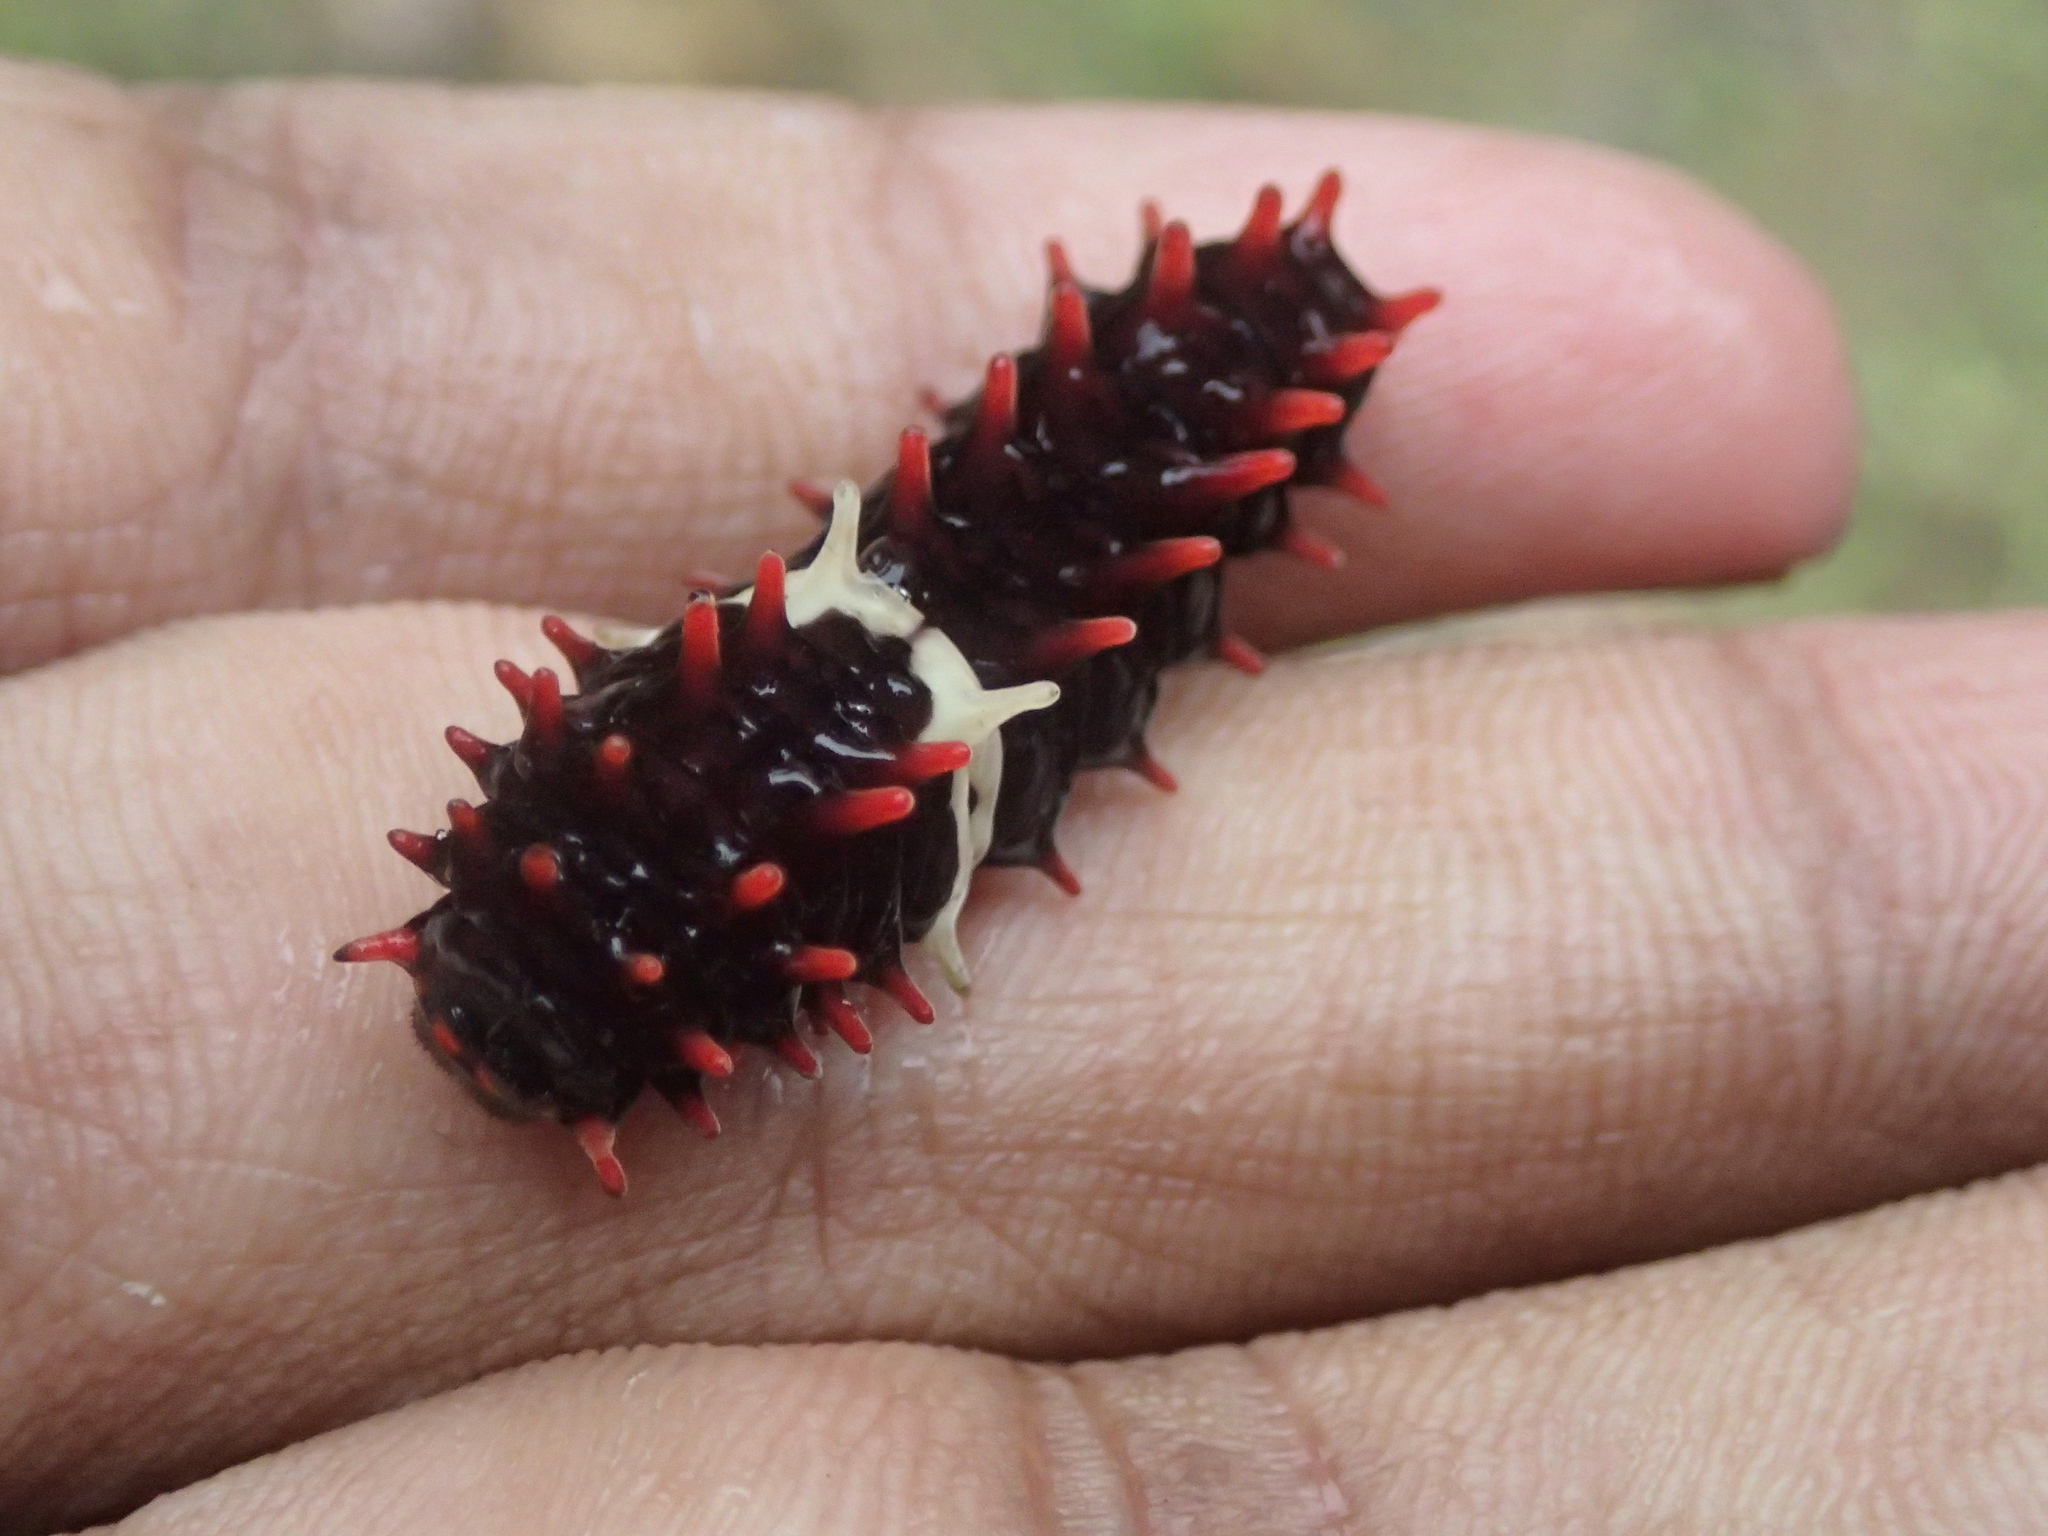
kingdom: Animalia
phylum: Arthropoda
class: Insecta
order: Lepidoptera
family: Papilionidae
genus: Pachliopta
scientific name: Pachliopta aristolochiae
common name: Common rose
